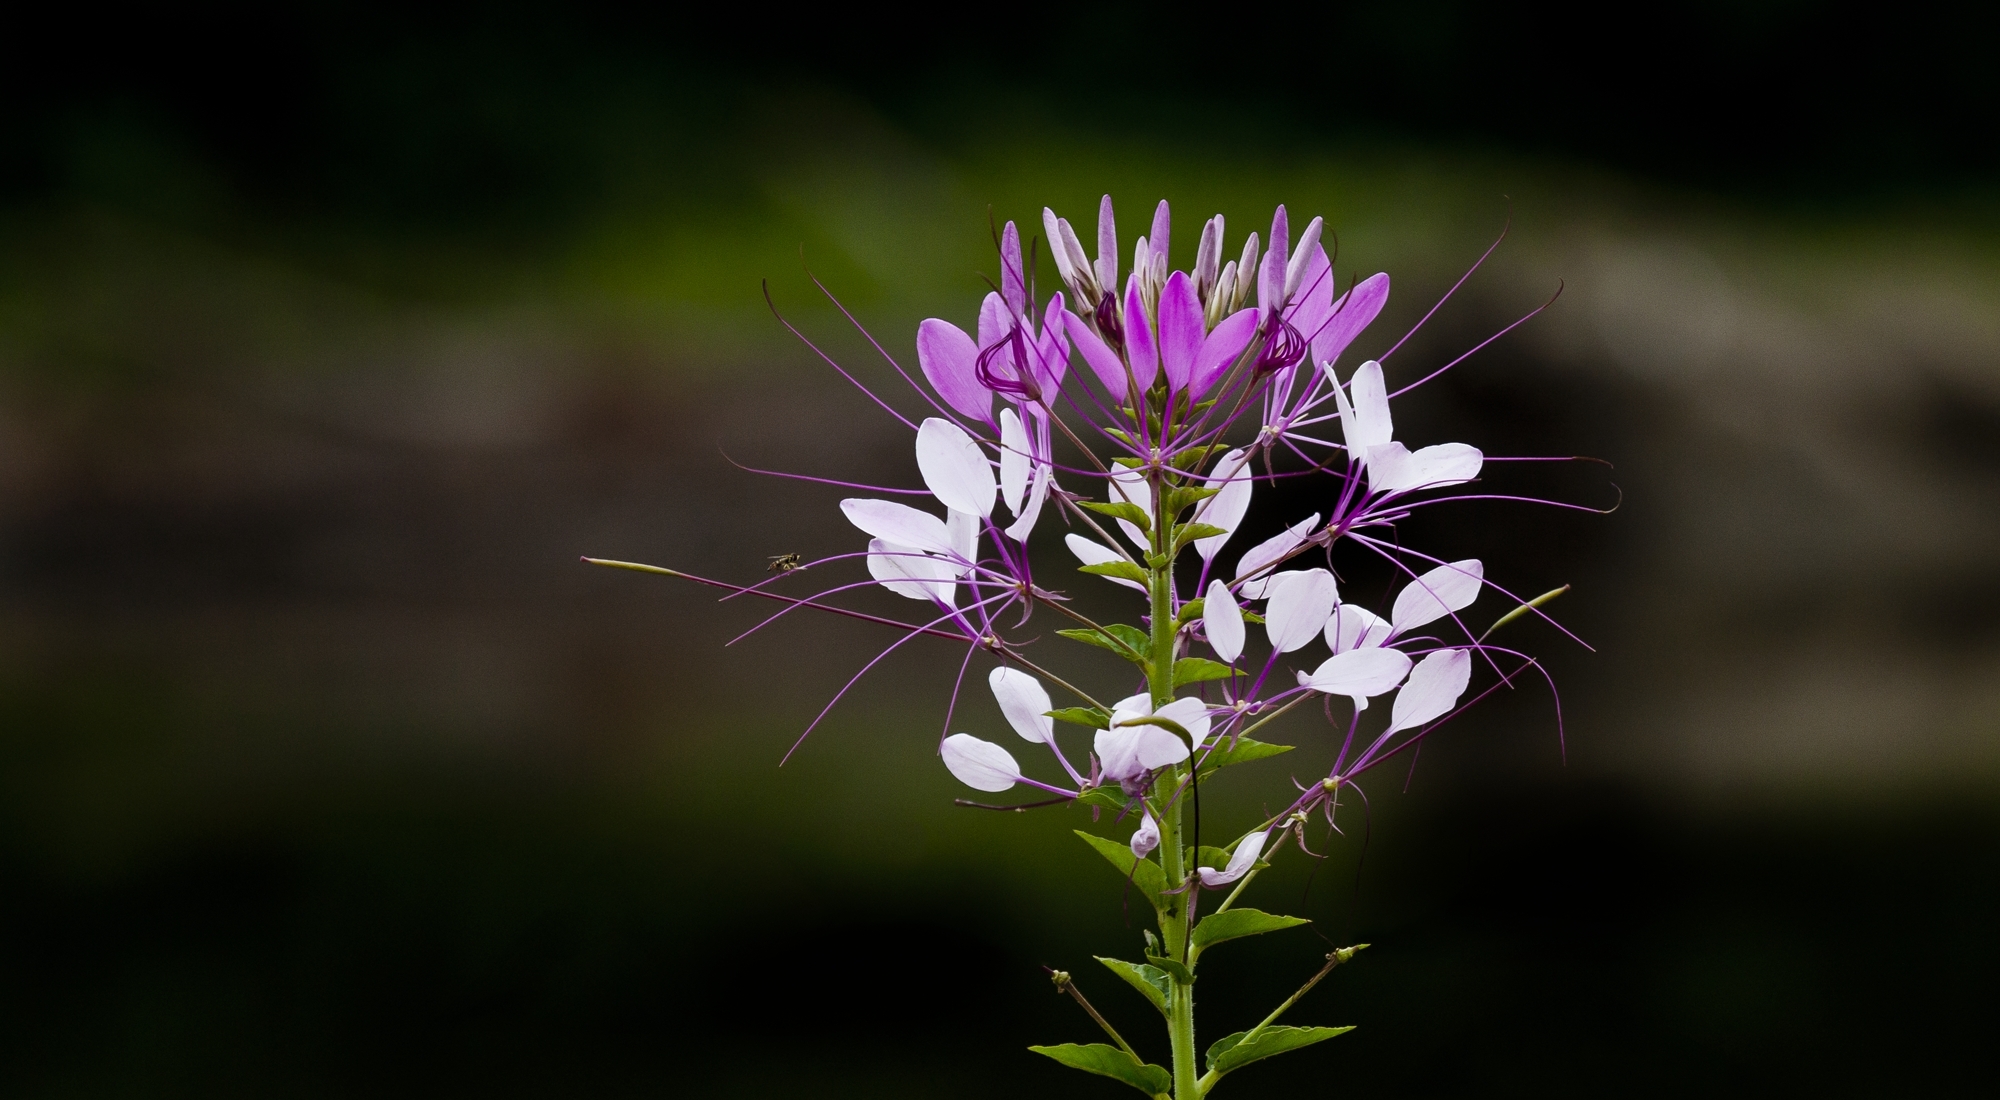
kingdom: Plantae
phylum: Tracheophyta
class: Magnoliopsida
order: Brassicales
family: Cleomaceae
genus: Tarenaya
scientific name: Tarenaya houtteana
